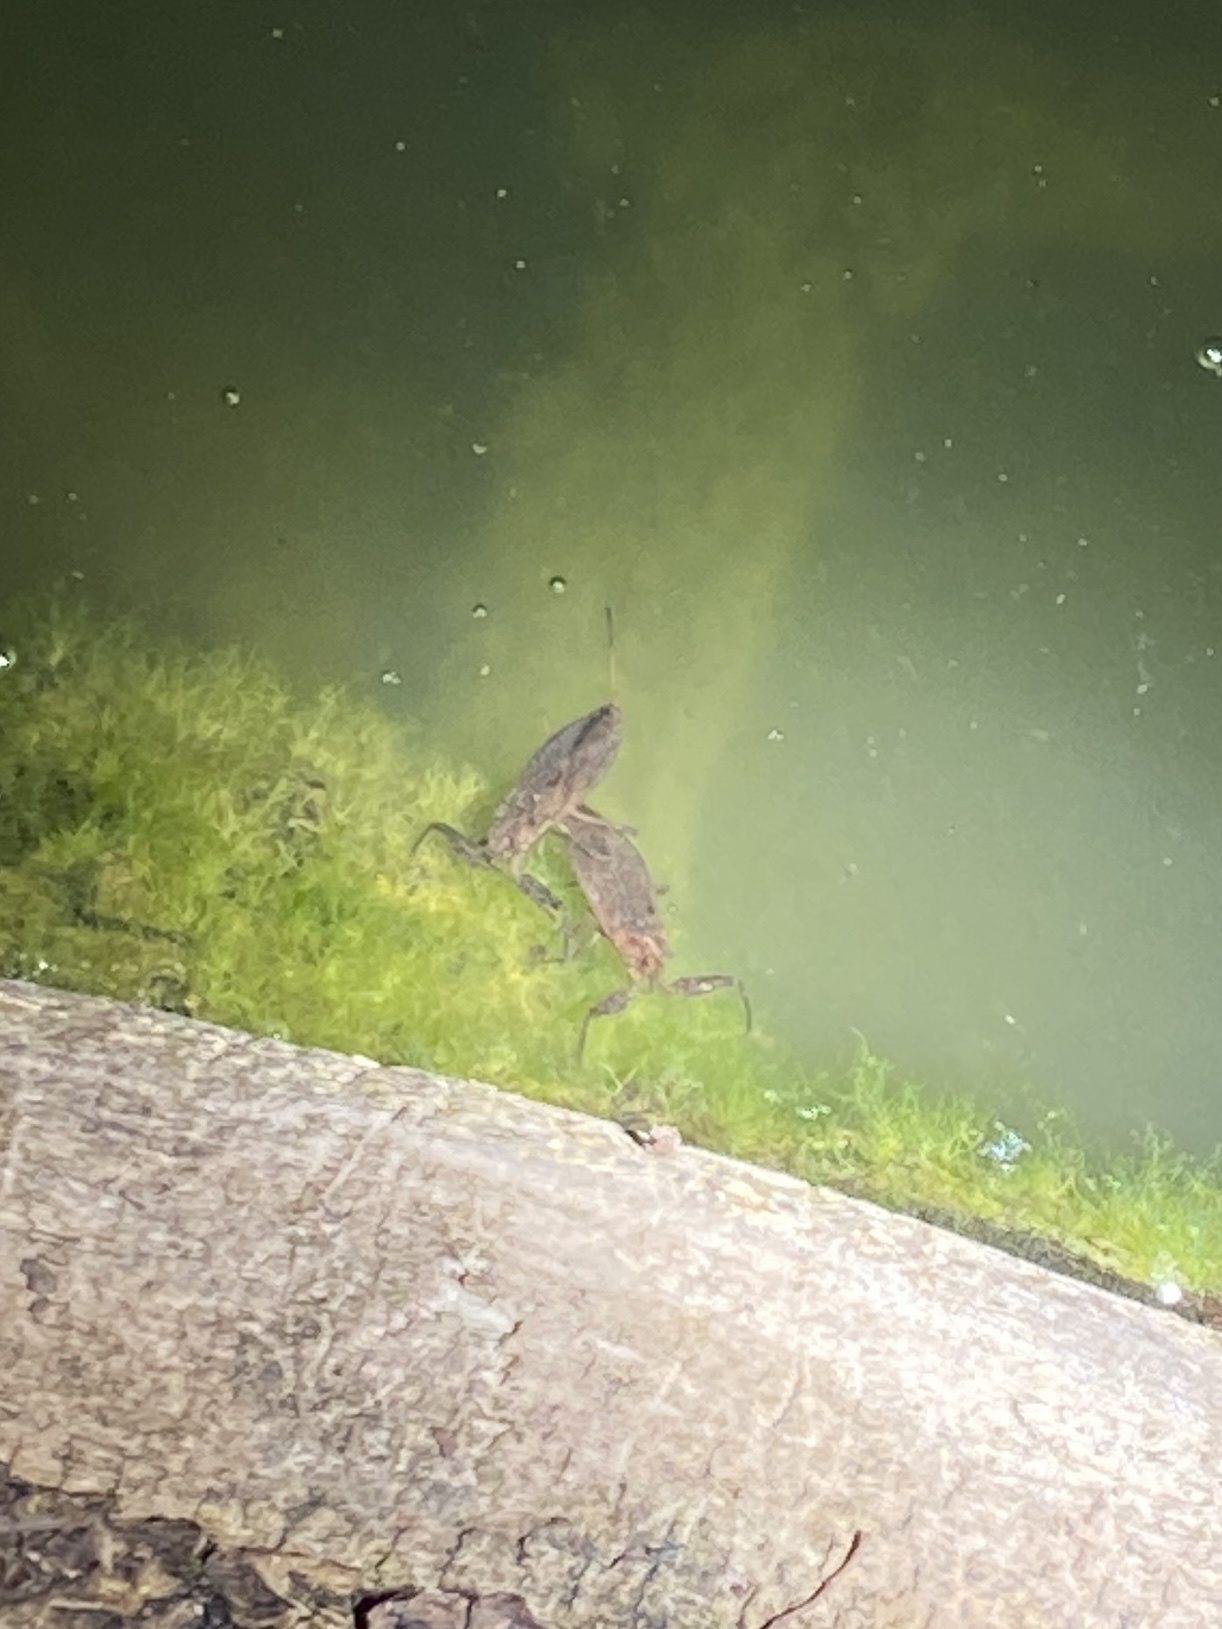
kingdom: Animalia
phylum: Arthropoda
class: Insecta
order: Hemiptera
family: Nepidae
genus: Nepa
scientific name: Nepa cinerea
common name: Water scorpion
